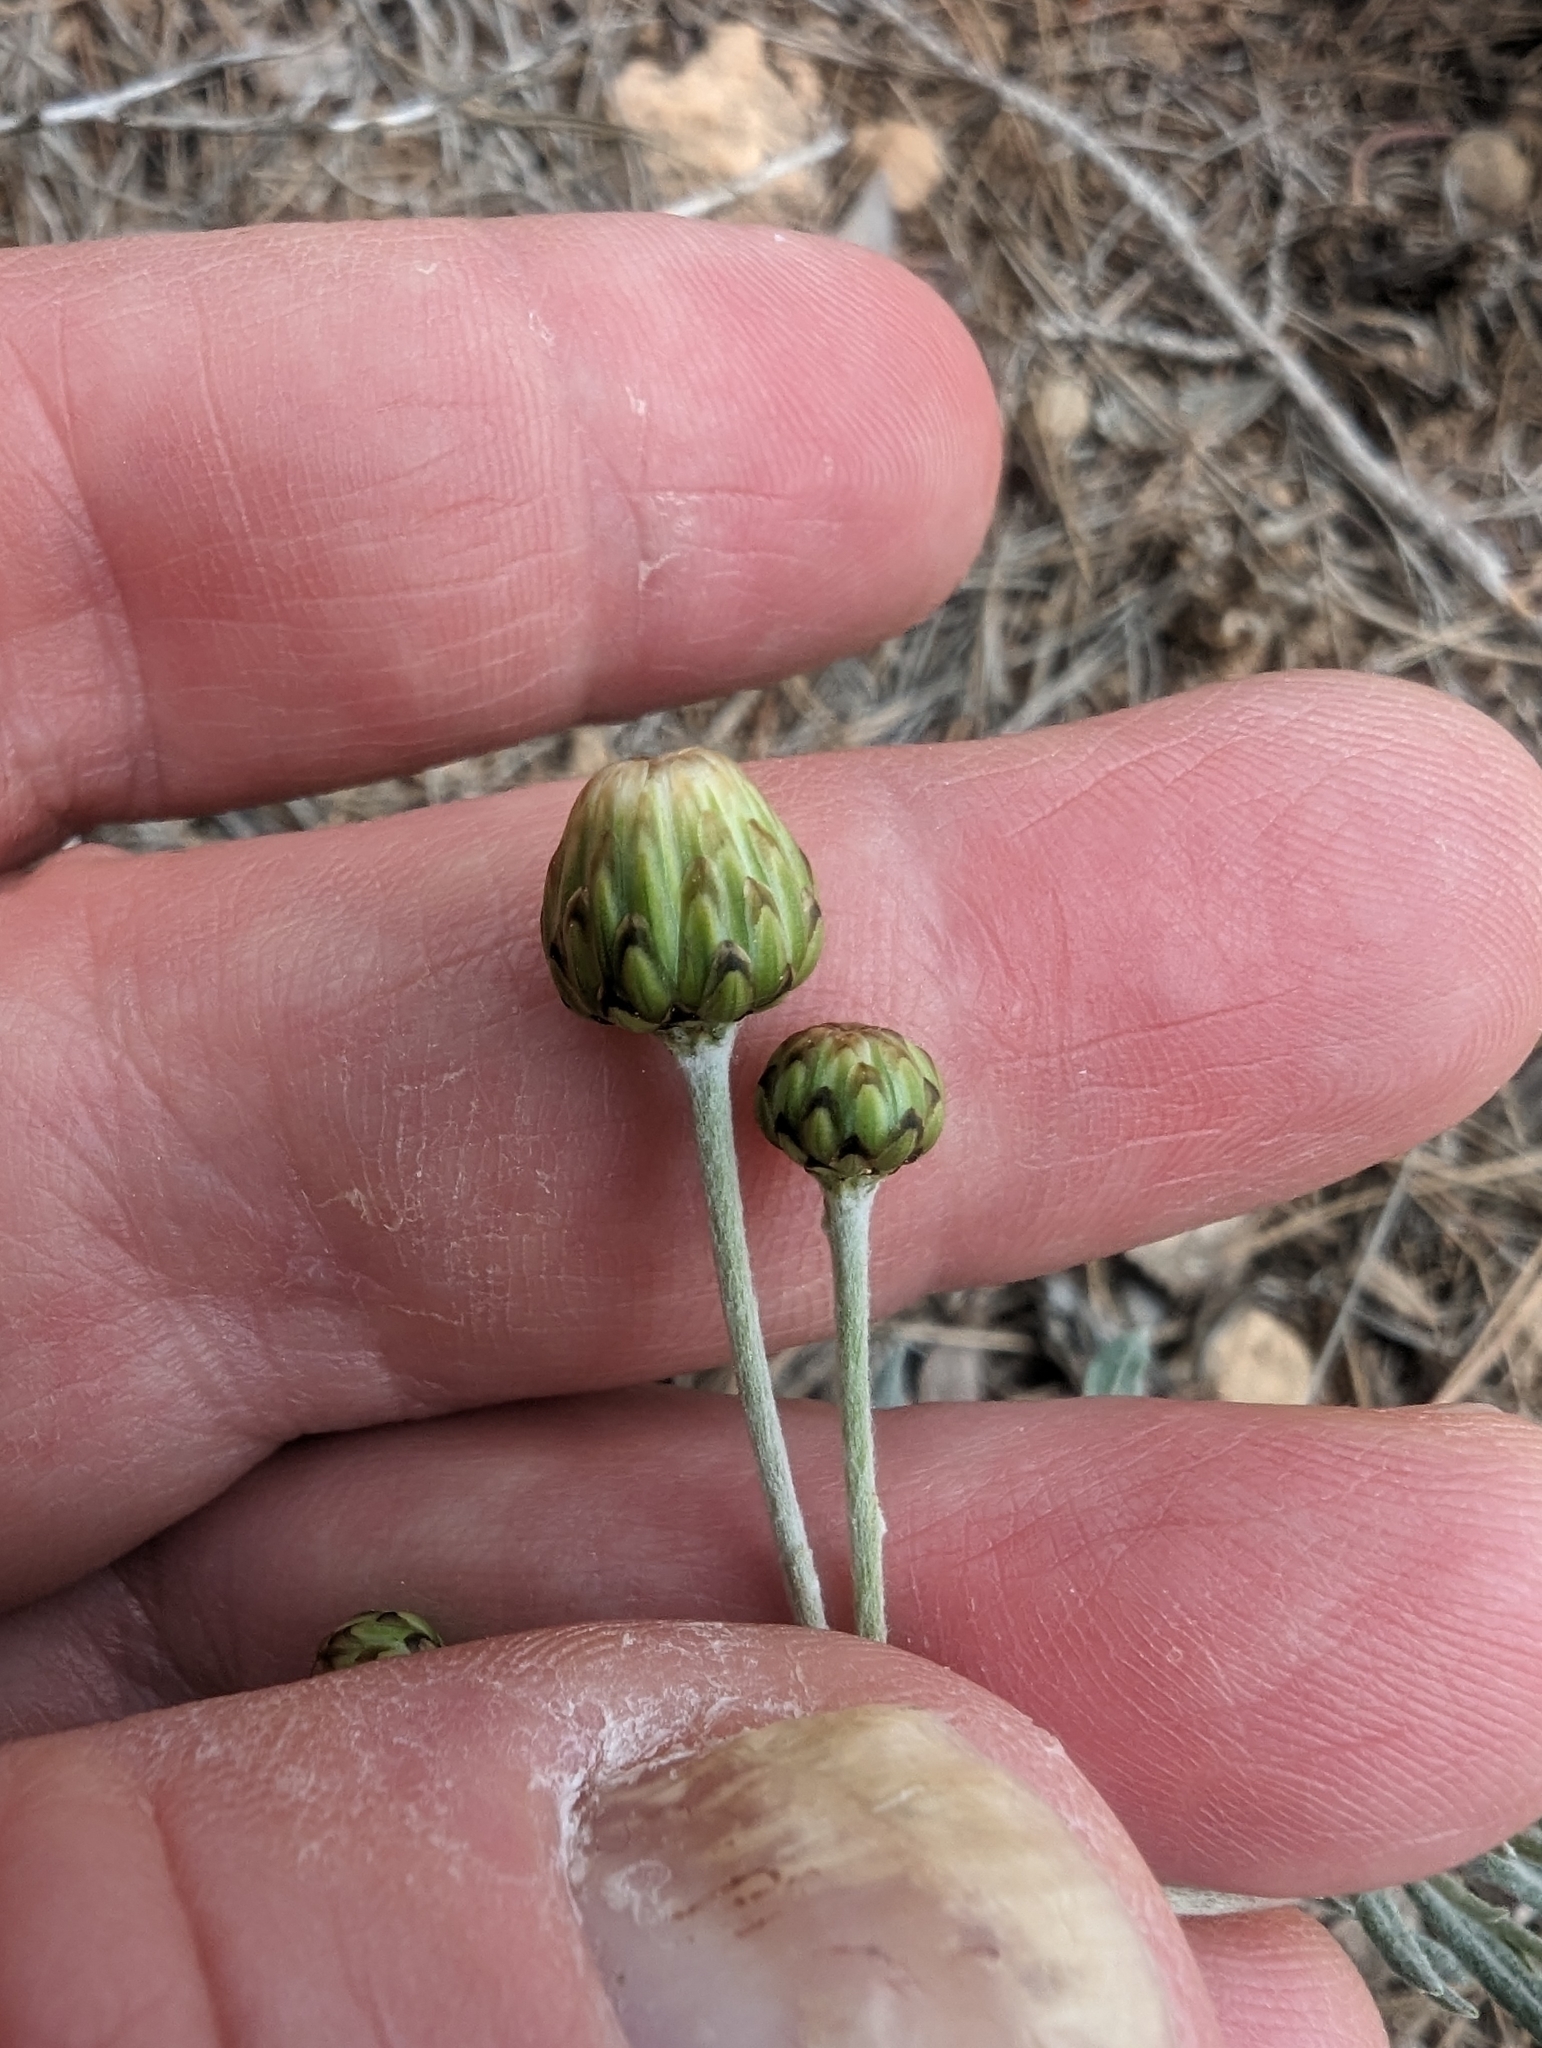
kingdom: Plantae
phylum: Tracheophyta
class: Magnoliopsida
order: Asterales
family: Asteraceae
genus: Phagnalon
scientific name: Phagnalon rupestre
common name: Rock phagnalon
